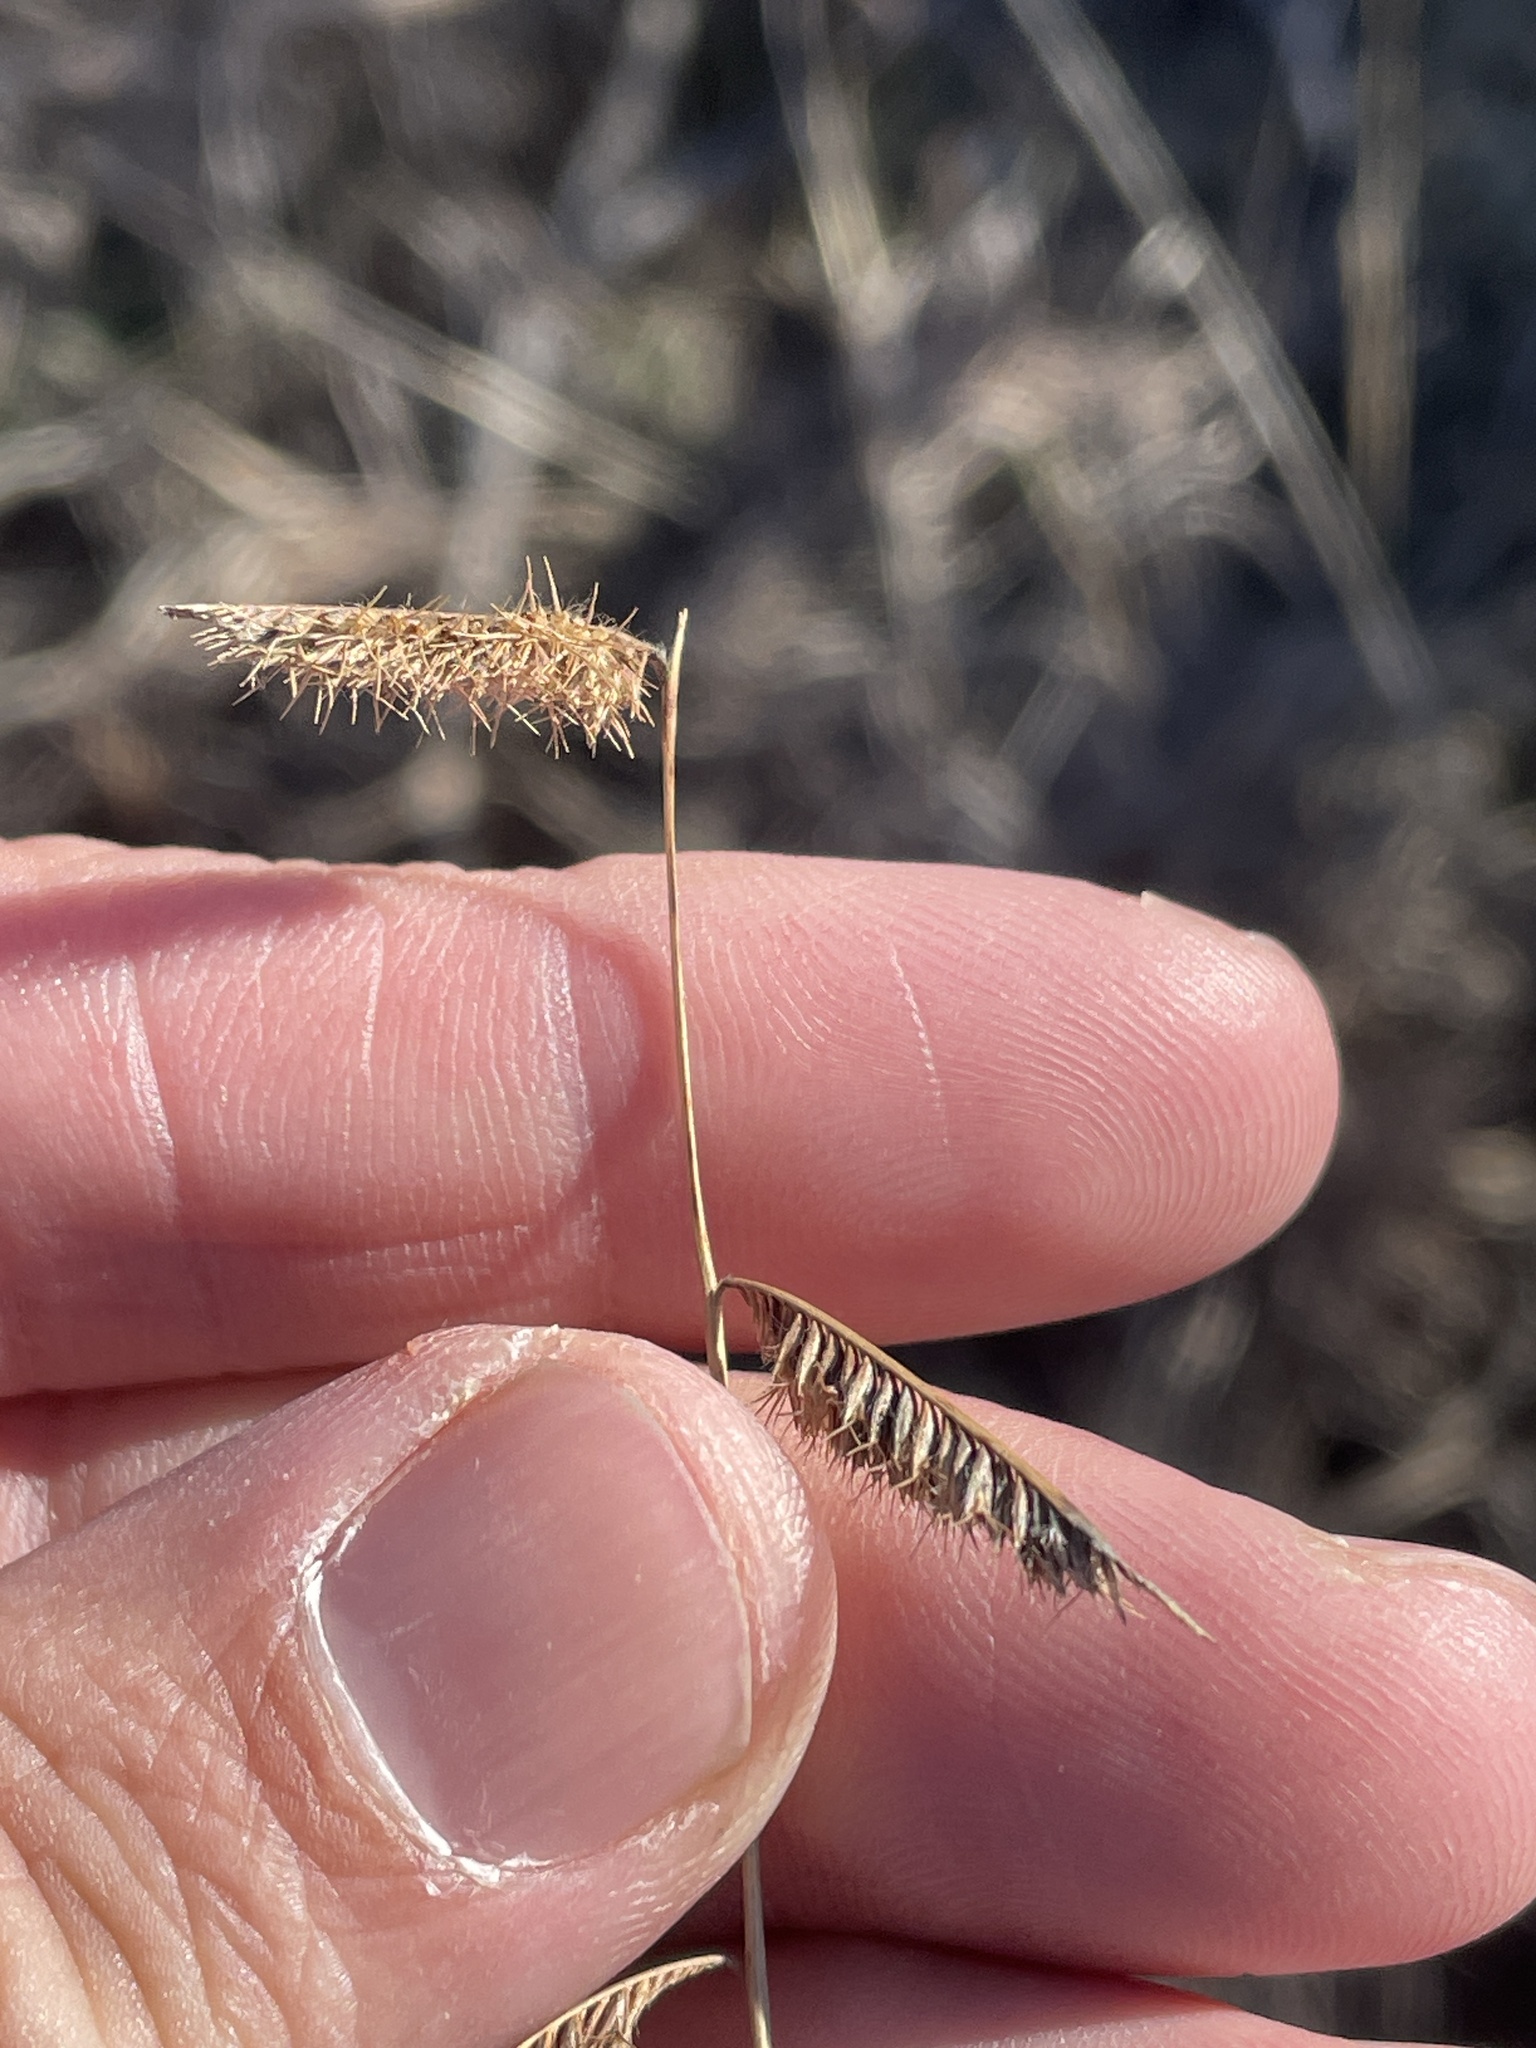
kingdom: Plantae
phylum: Tracheophyta
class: Liliopsida
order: Poales
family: Poaceae
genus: Bouteloua
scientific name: Bouteloua hirsuta
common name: Hairy grama
